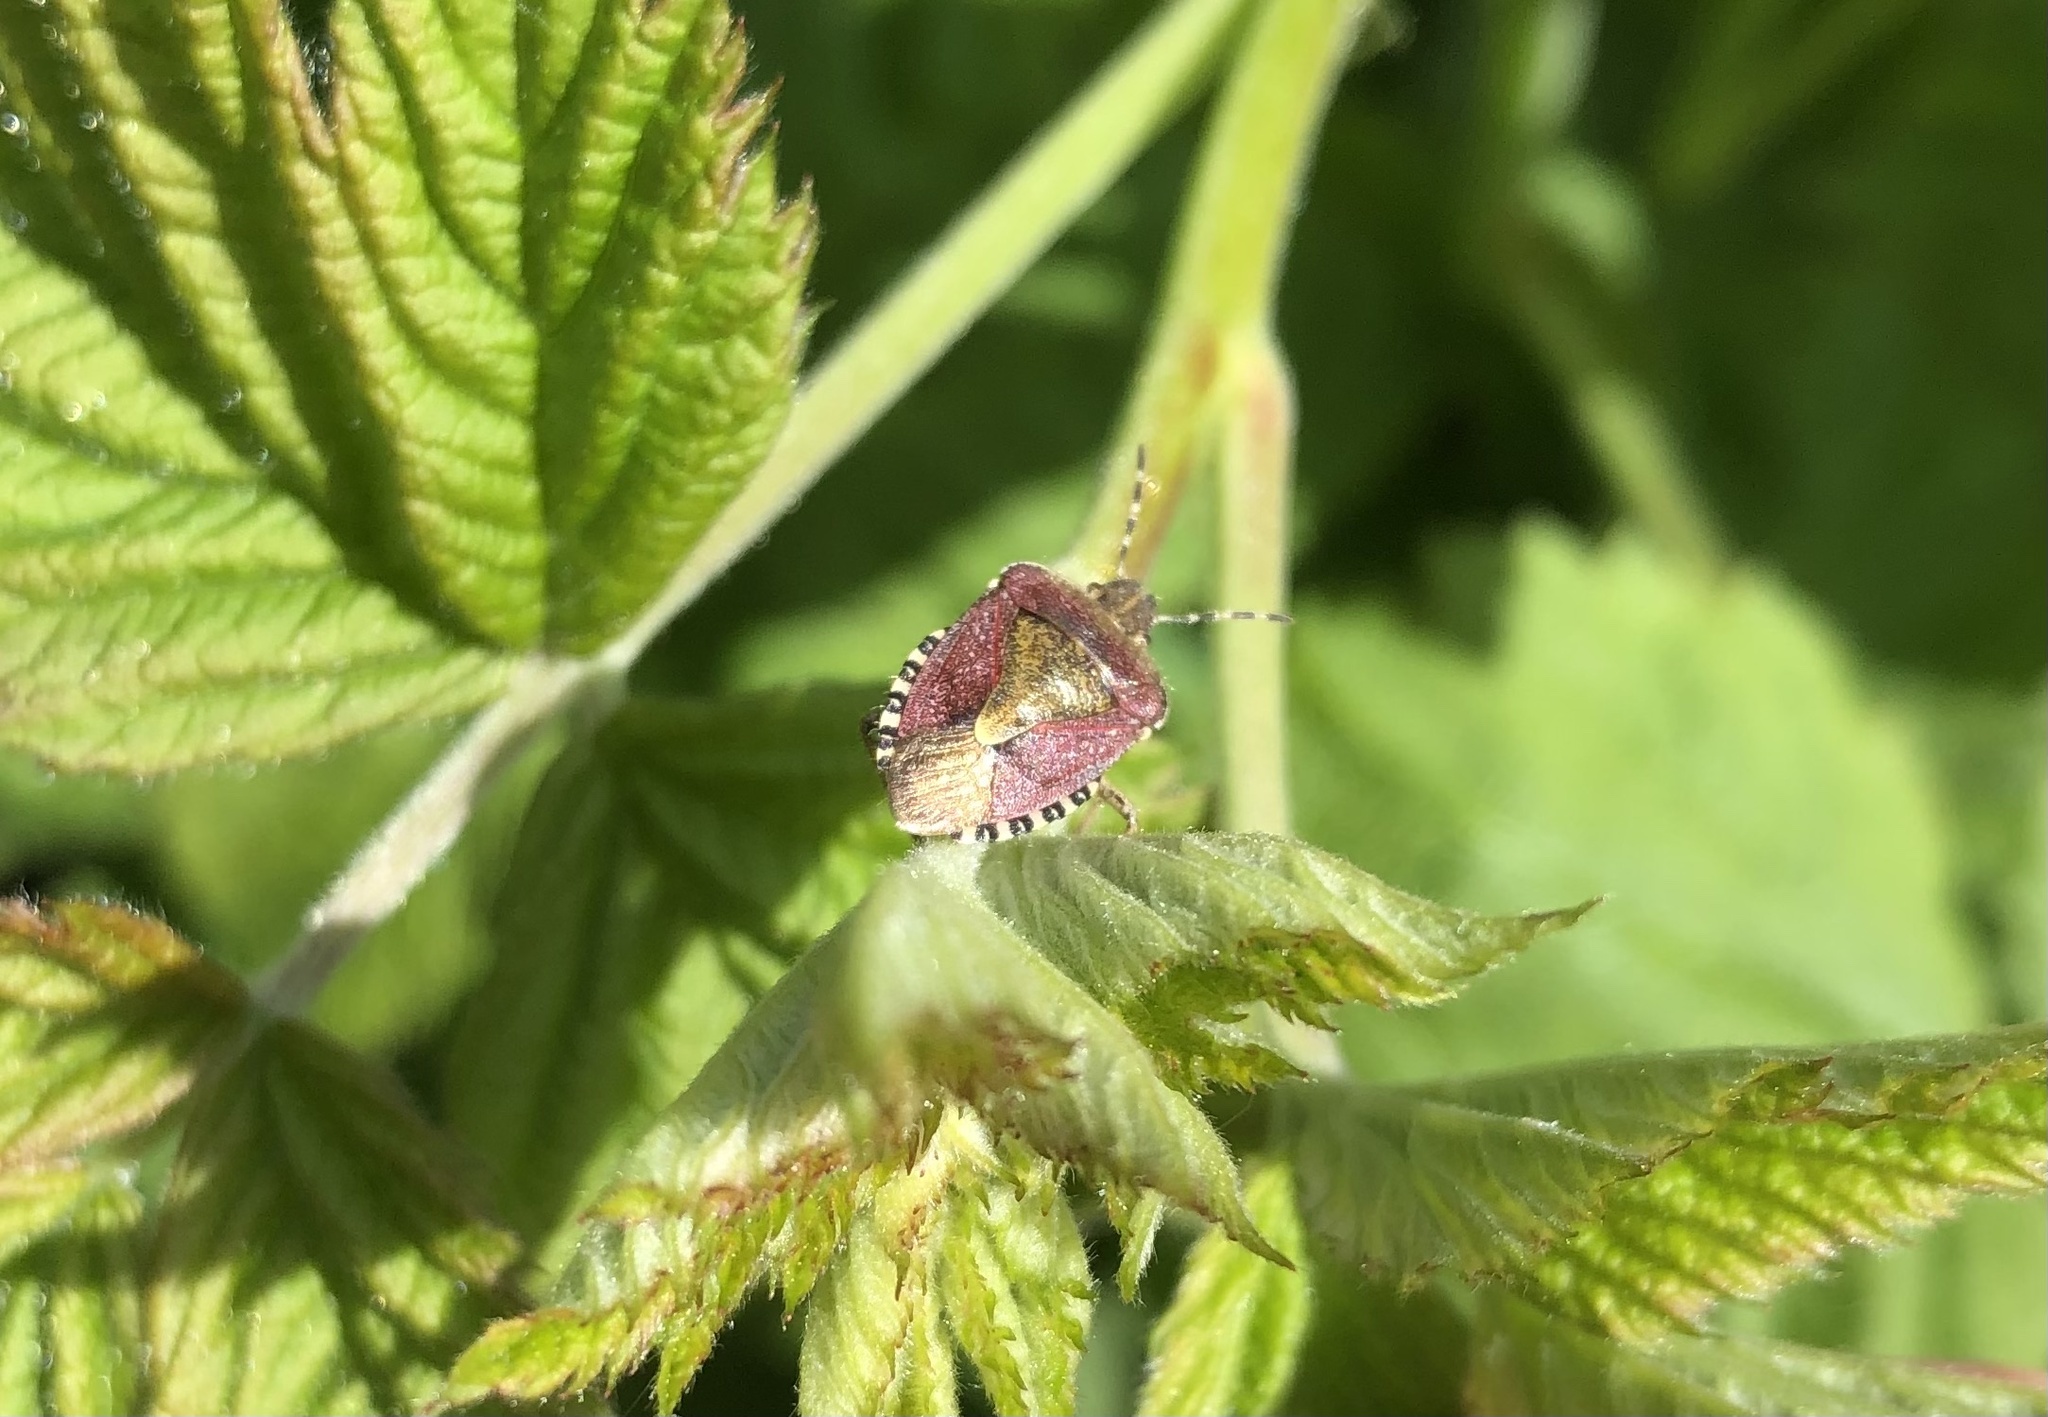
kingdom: Animalia
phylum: Arthropoda
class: Insecta
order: Hemiptera
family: Pentatomidae
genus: Dolycoris
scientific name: Dolycoris baccarum
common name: Sloe bug
